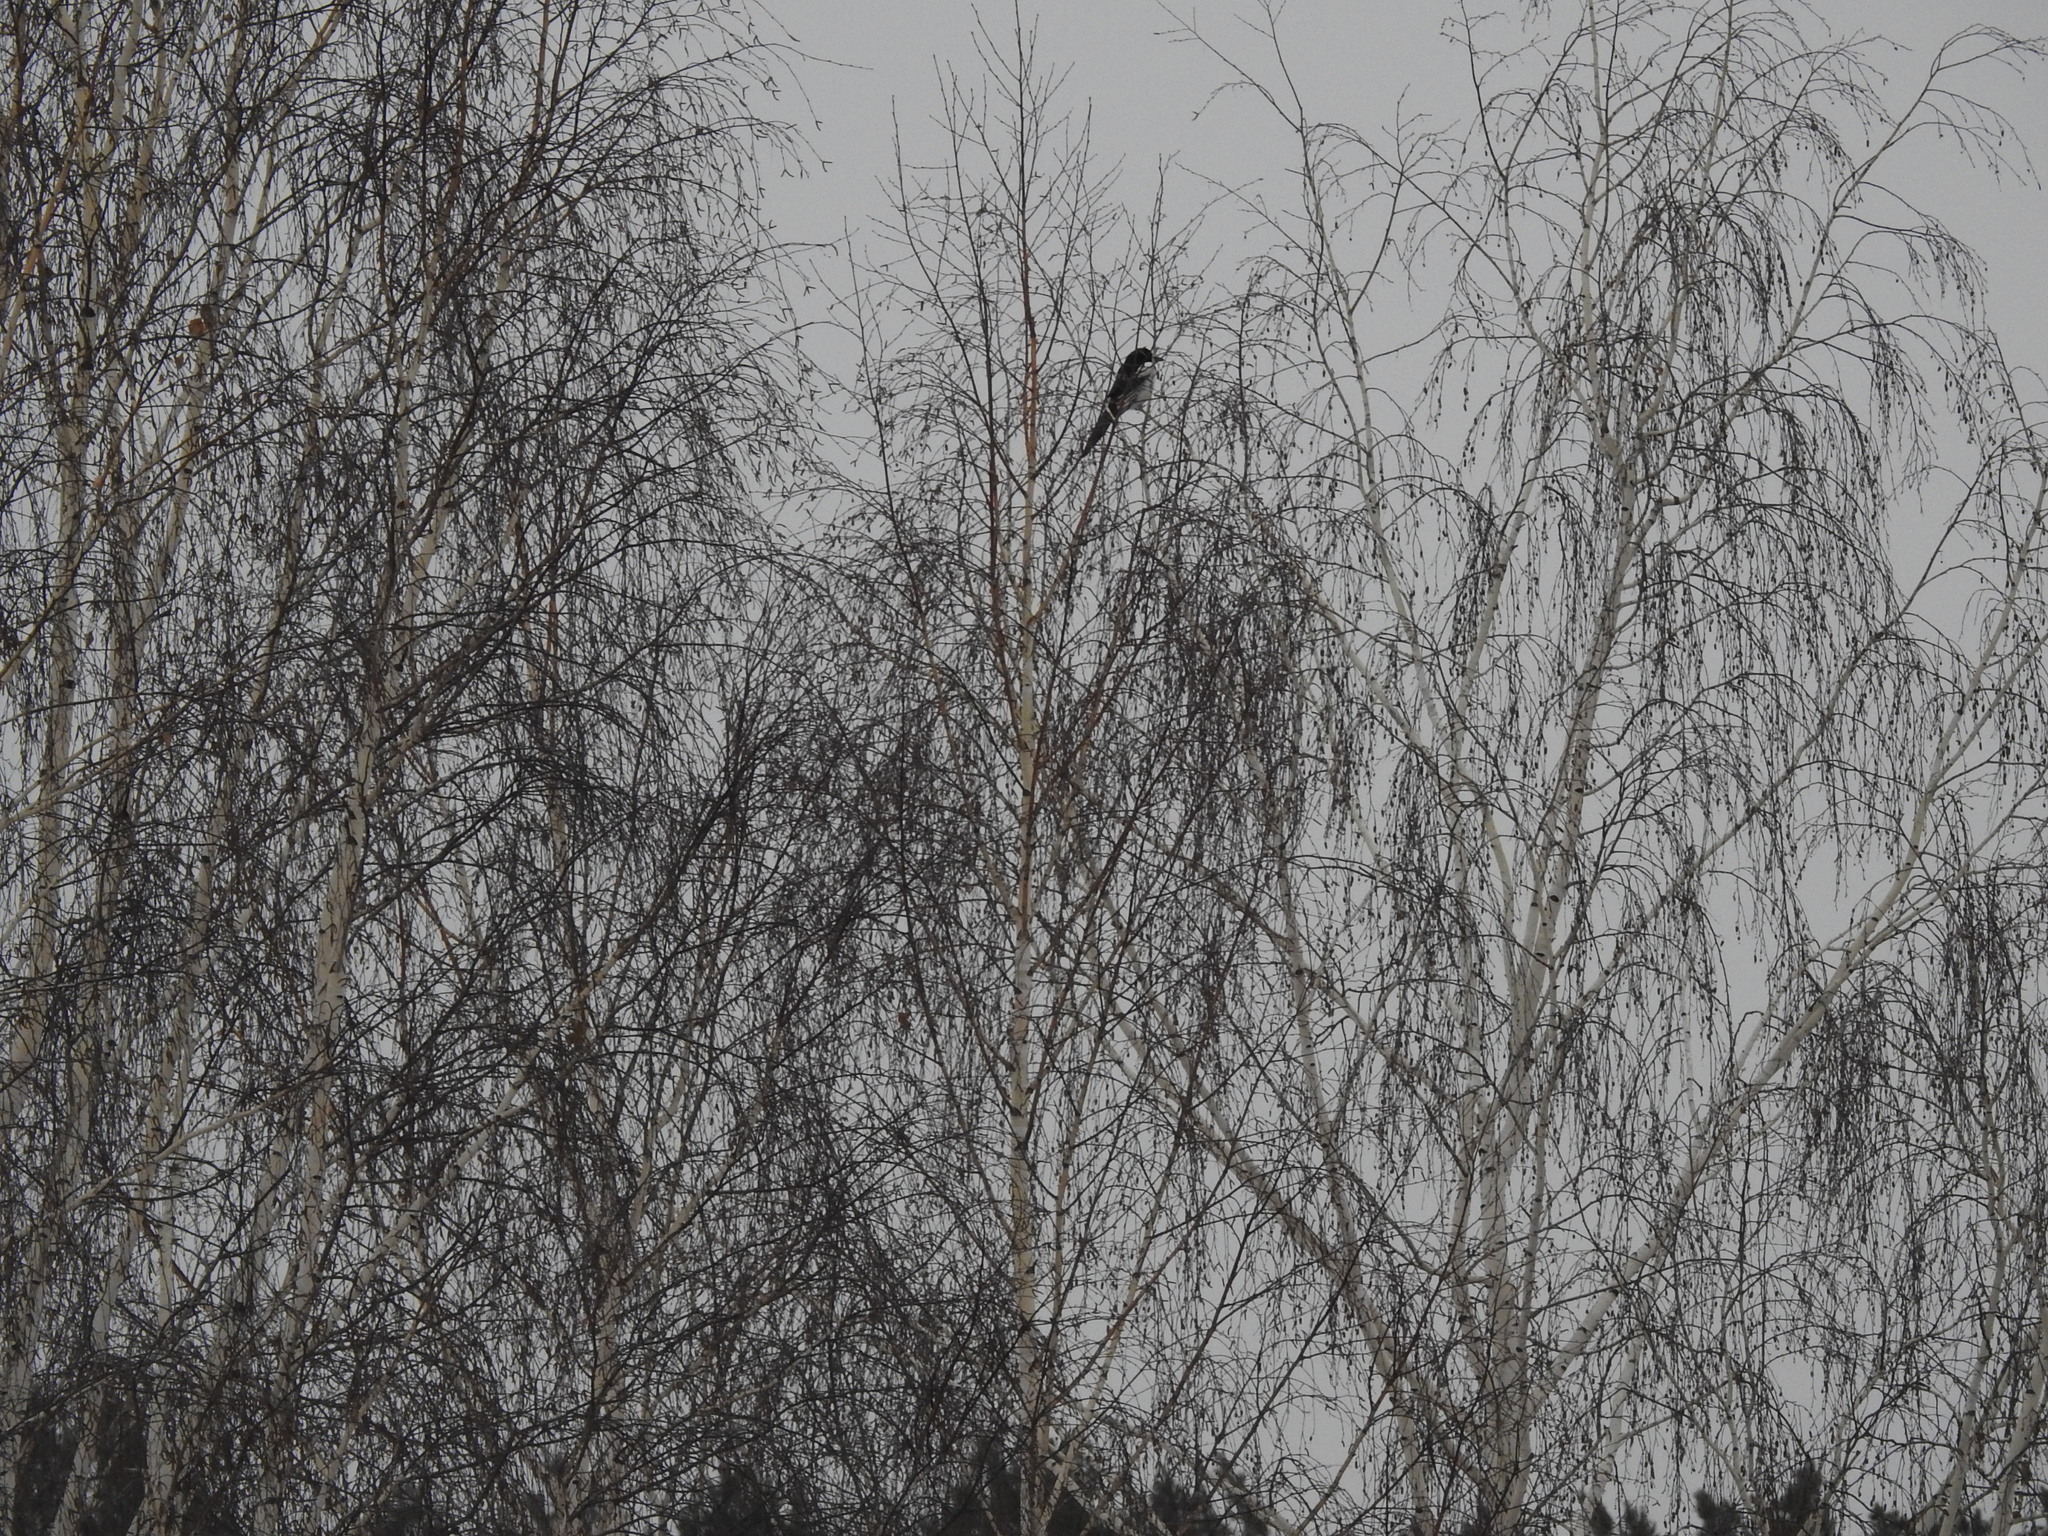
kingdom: Animalia
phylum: Chordata
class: Aves
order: Passeriformes
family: Corvidae
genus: Pica
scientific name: Pica pica
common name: Eurasian magpie
